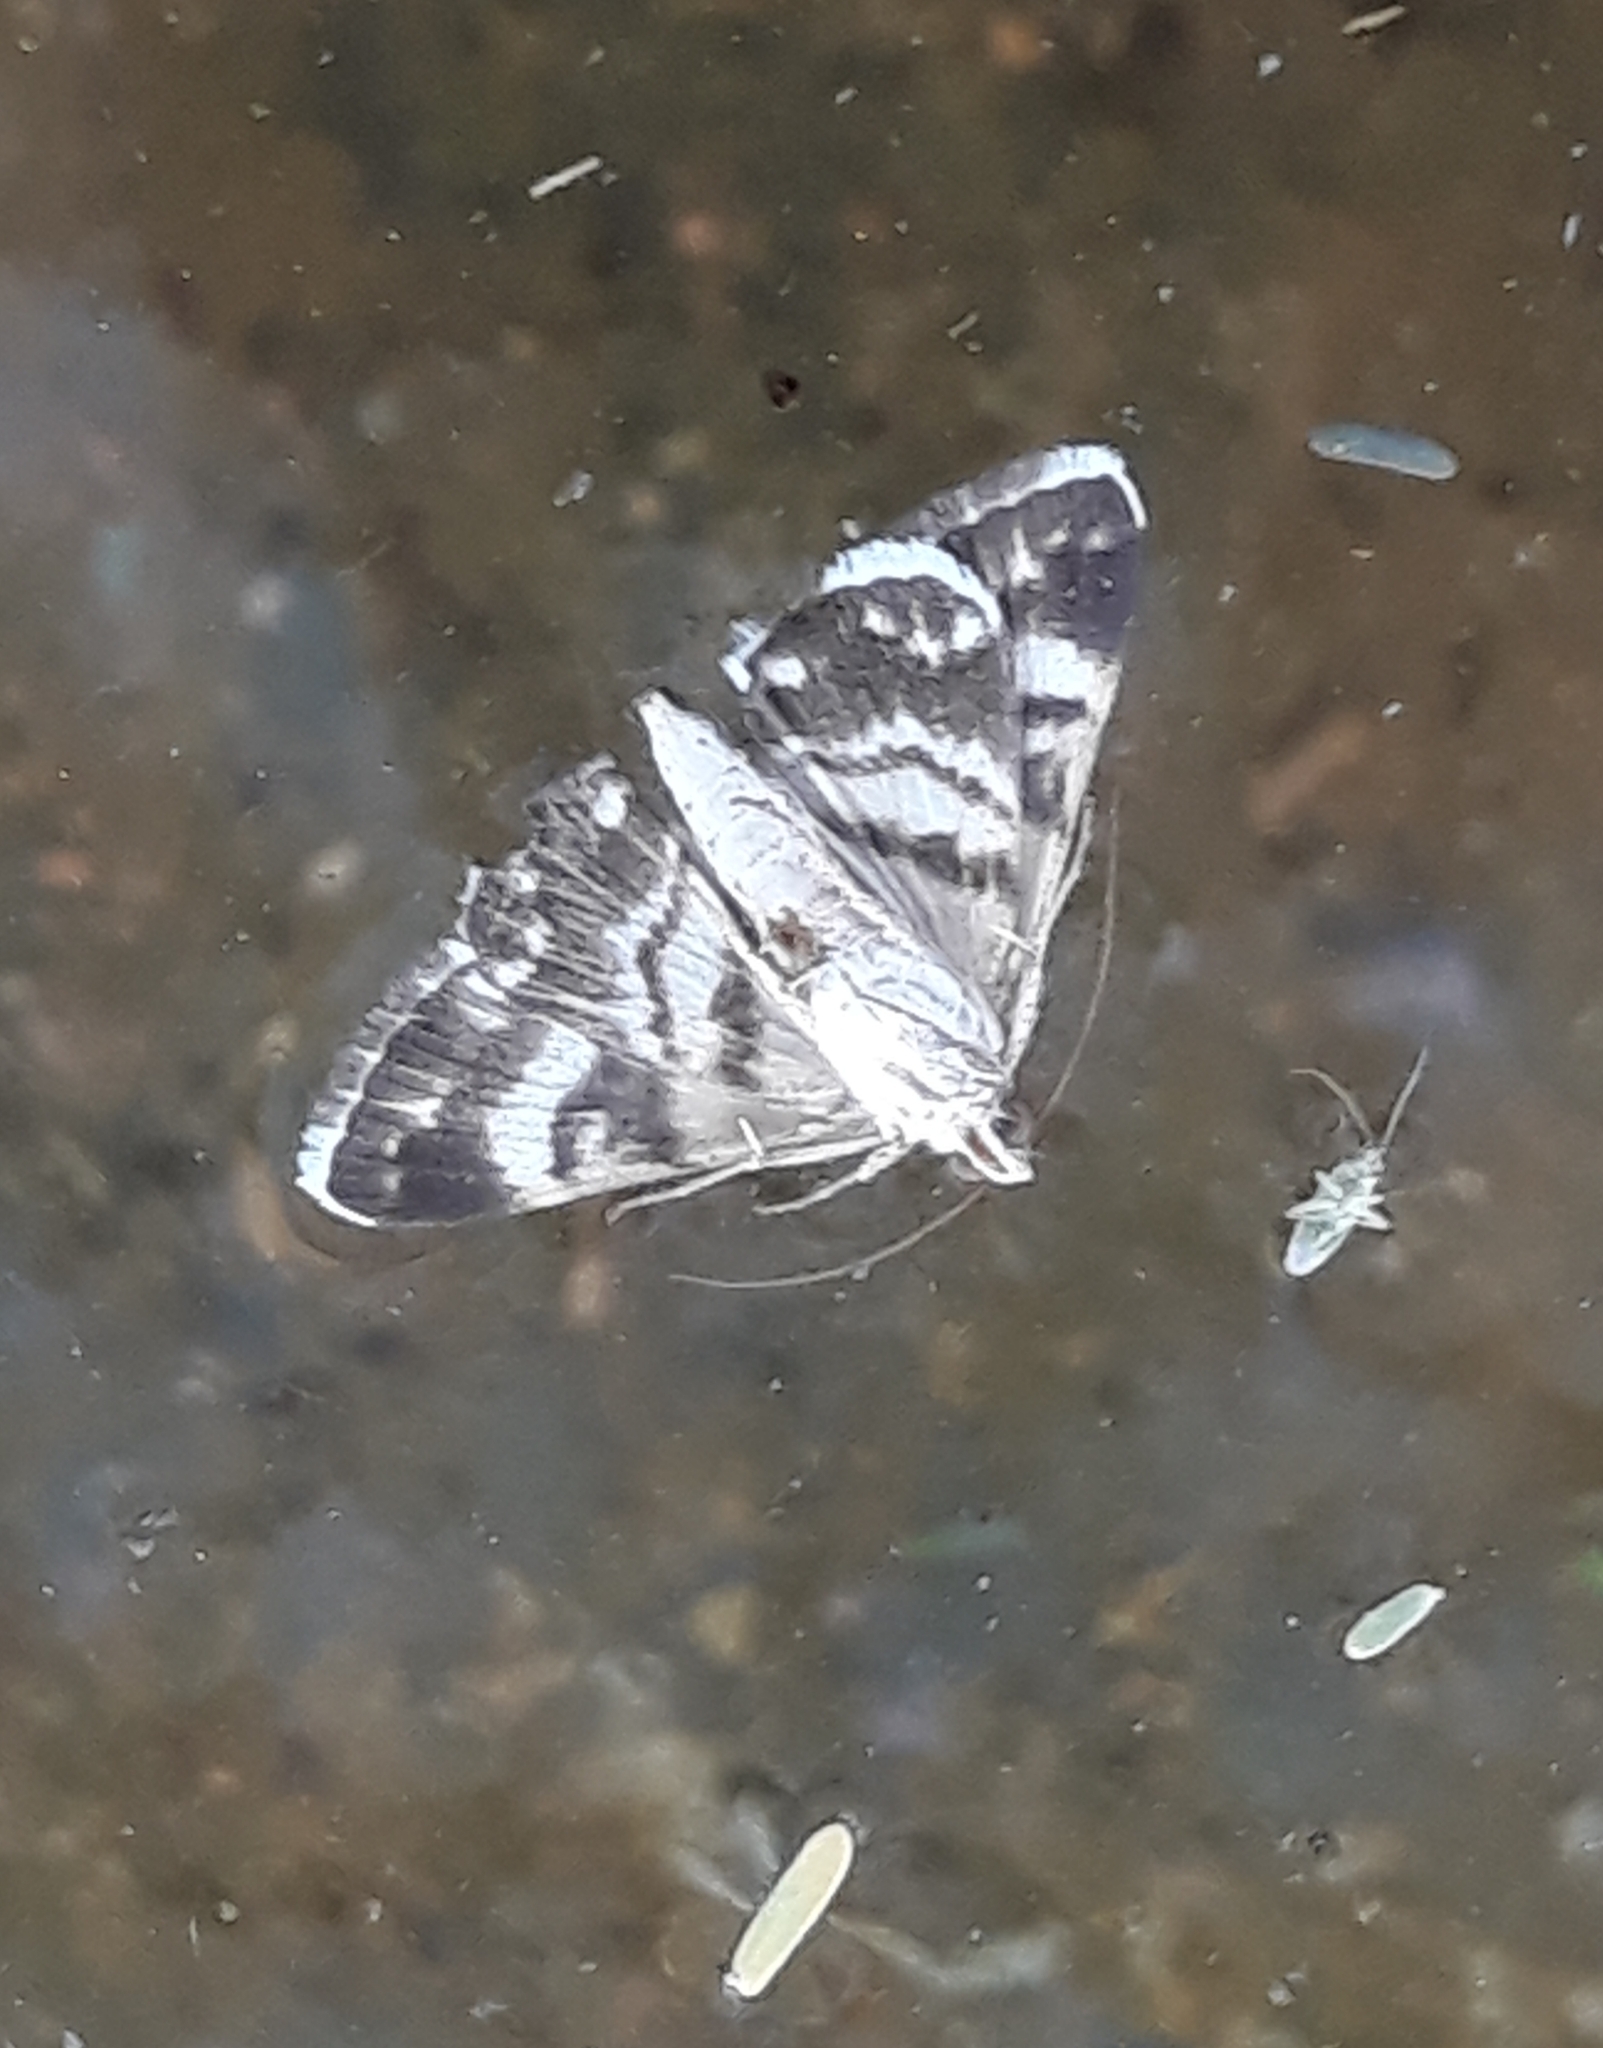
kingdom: Animalia
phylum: Arthropoda
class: Insecta
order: Lepidoptera
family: Erebidae
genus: Grammodes
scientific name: Grammodes stolida
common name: Geometrician
